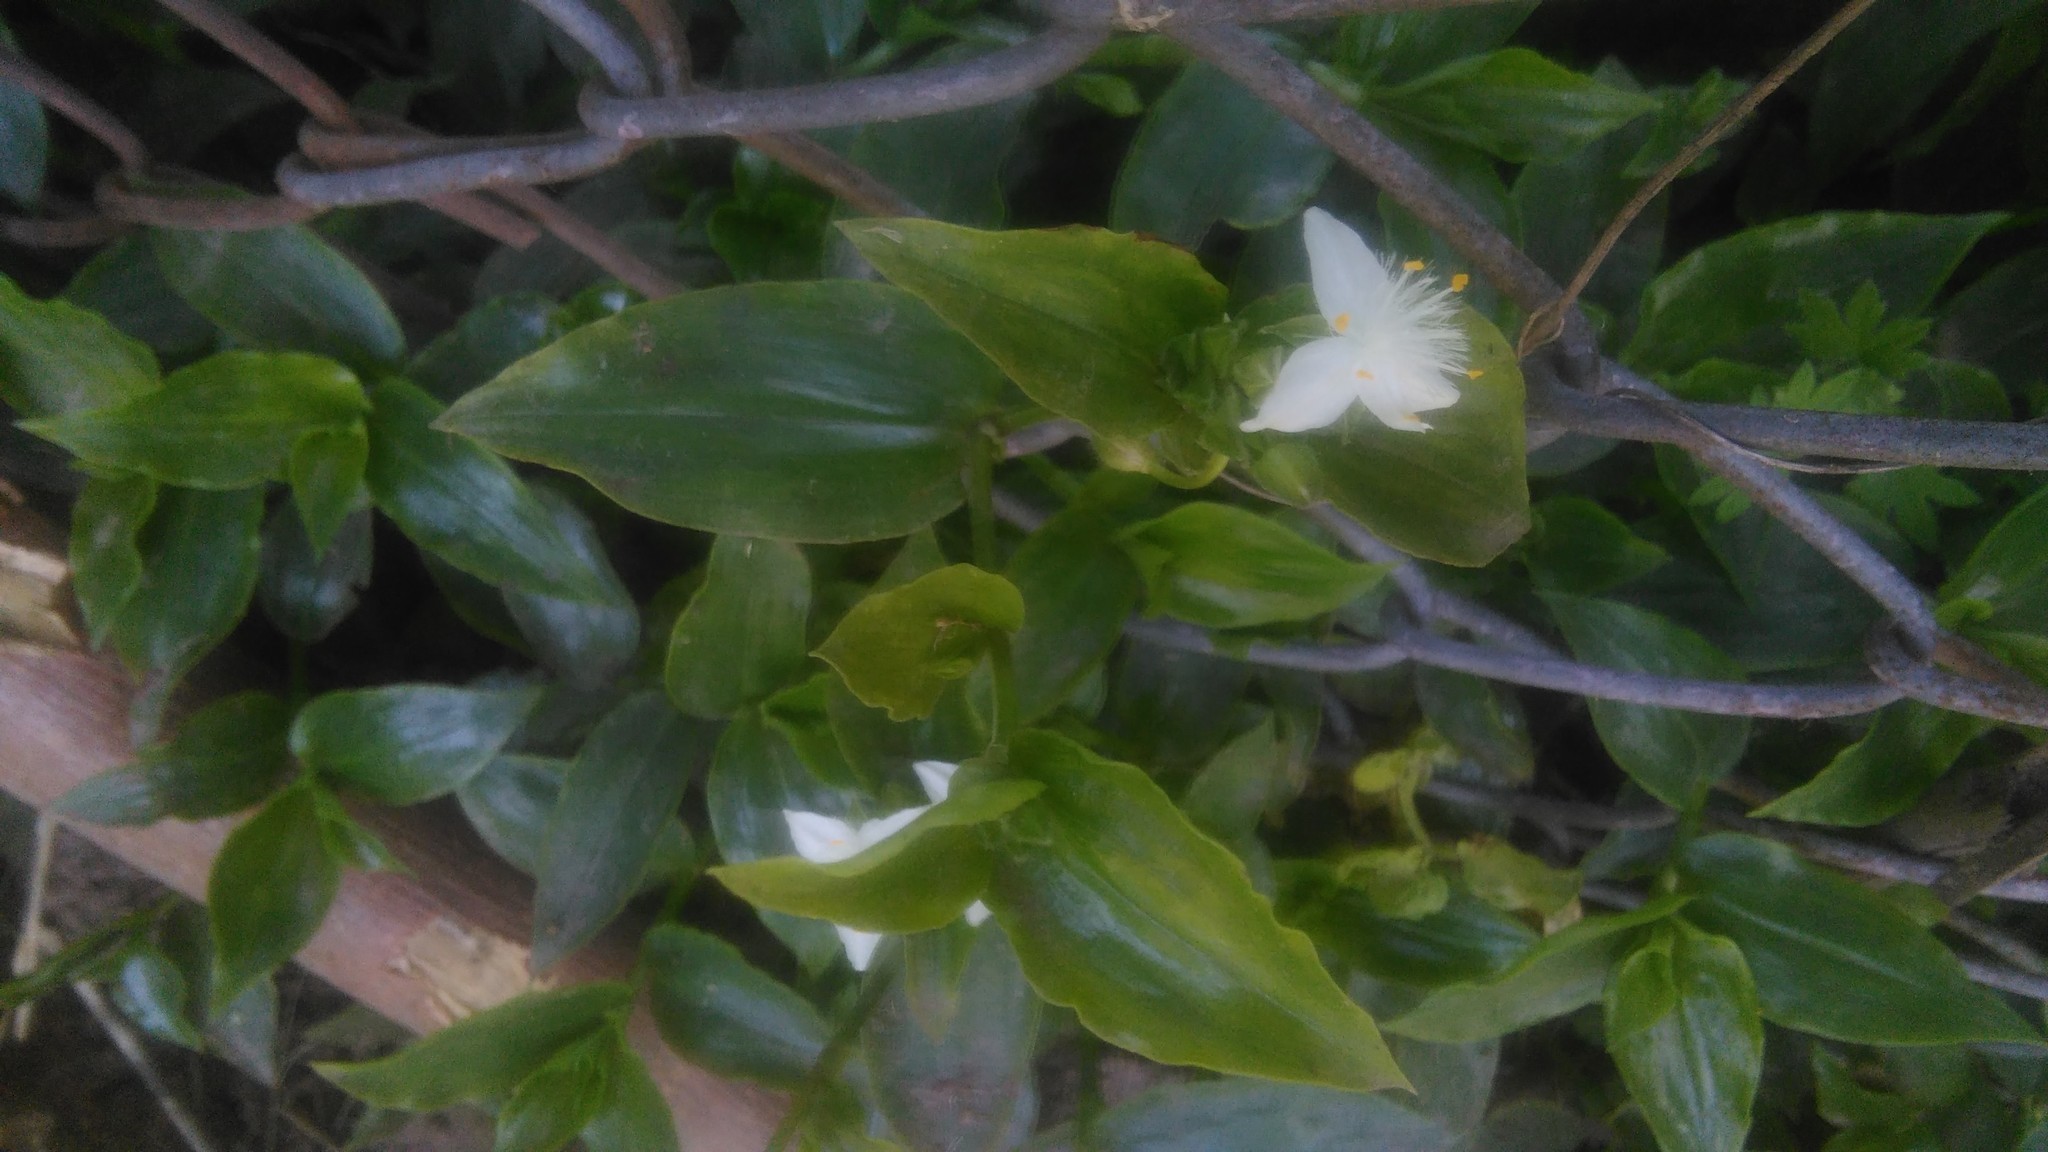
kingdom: Plantae
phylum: Tracheophyta
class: Liliopsida
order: Commelinales
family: Commelinaceae
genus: Tradescantia
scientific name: Tradescantia fluminensis
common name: Wandering-jew
